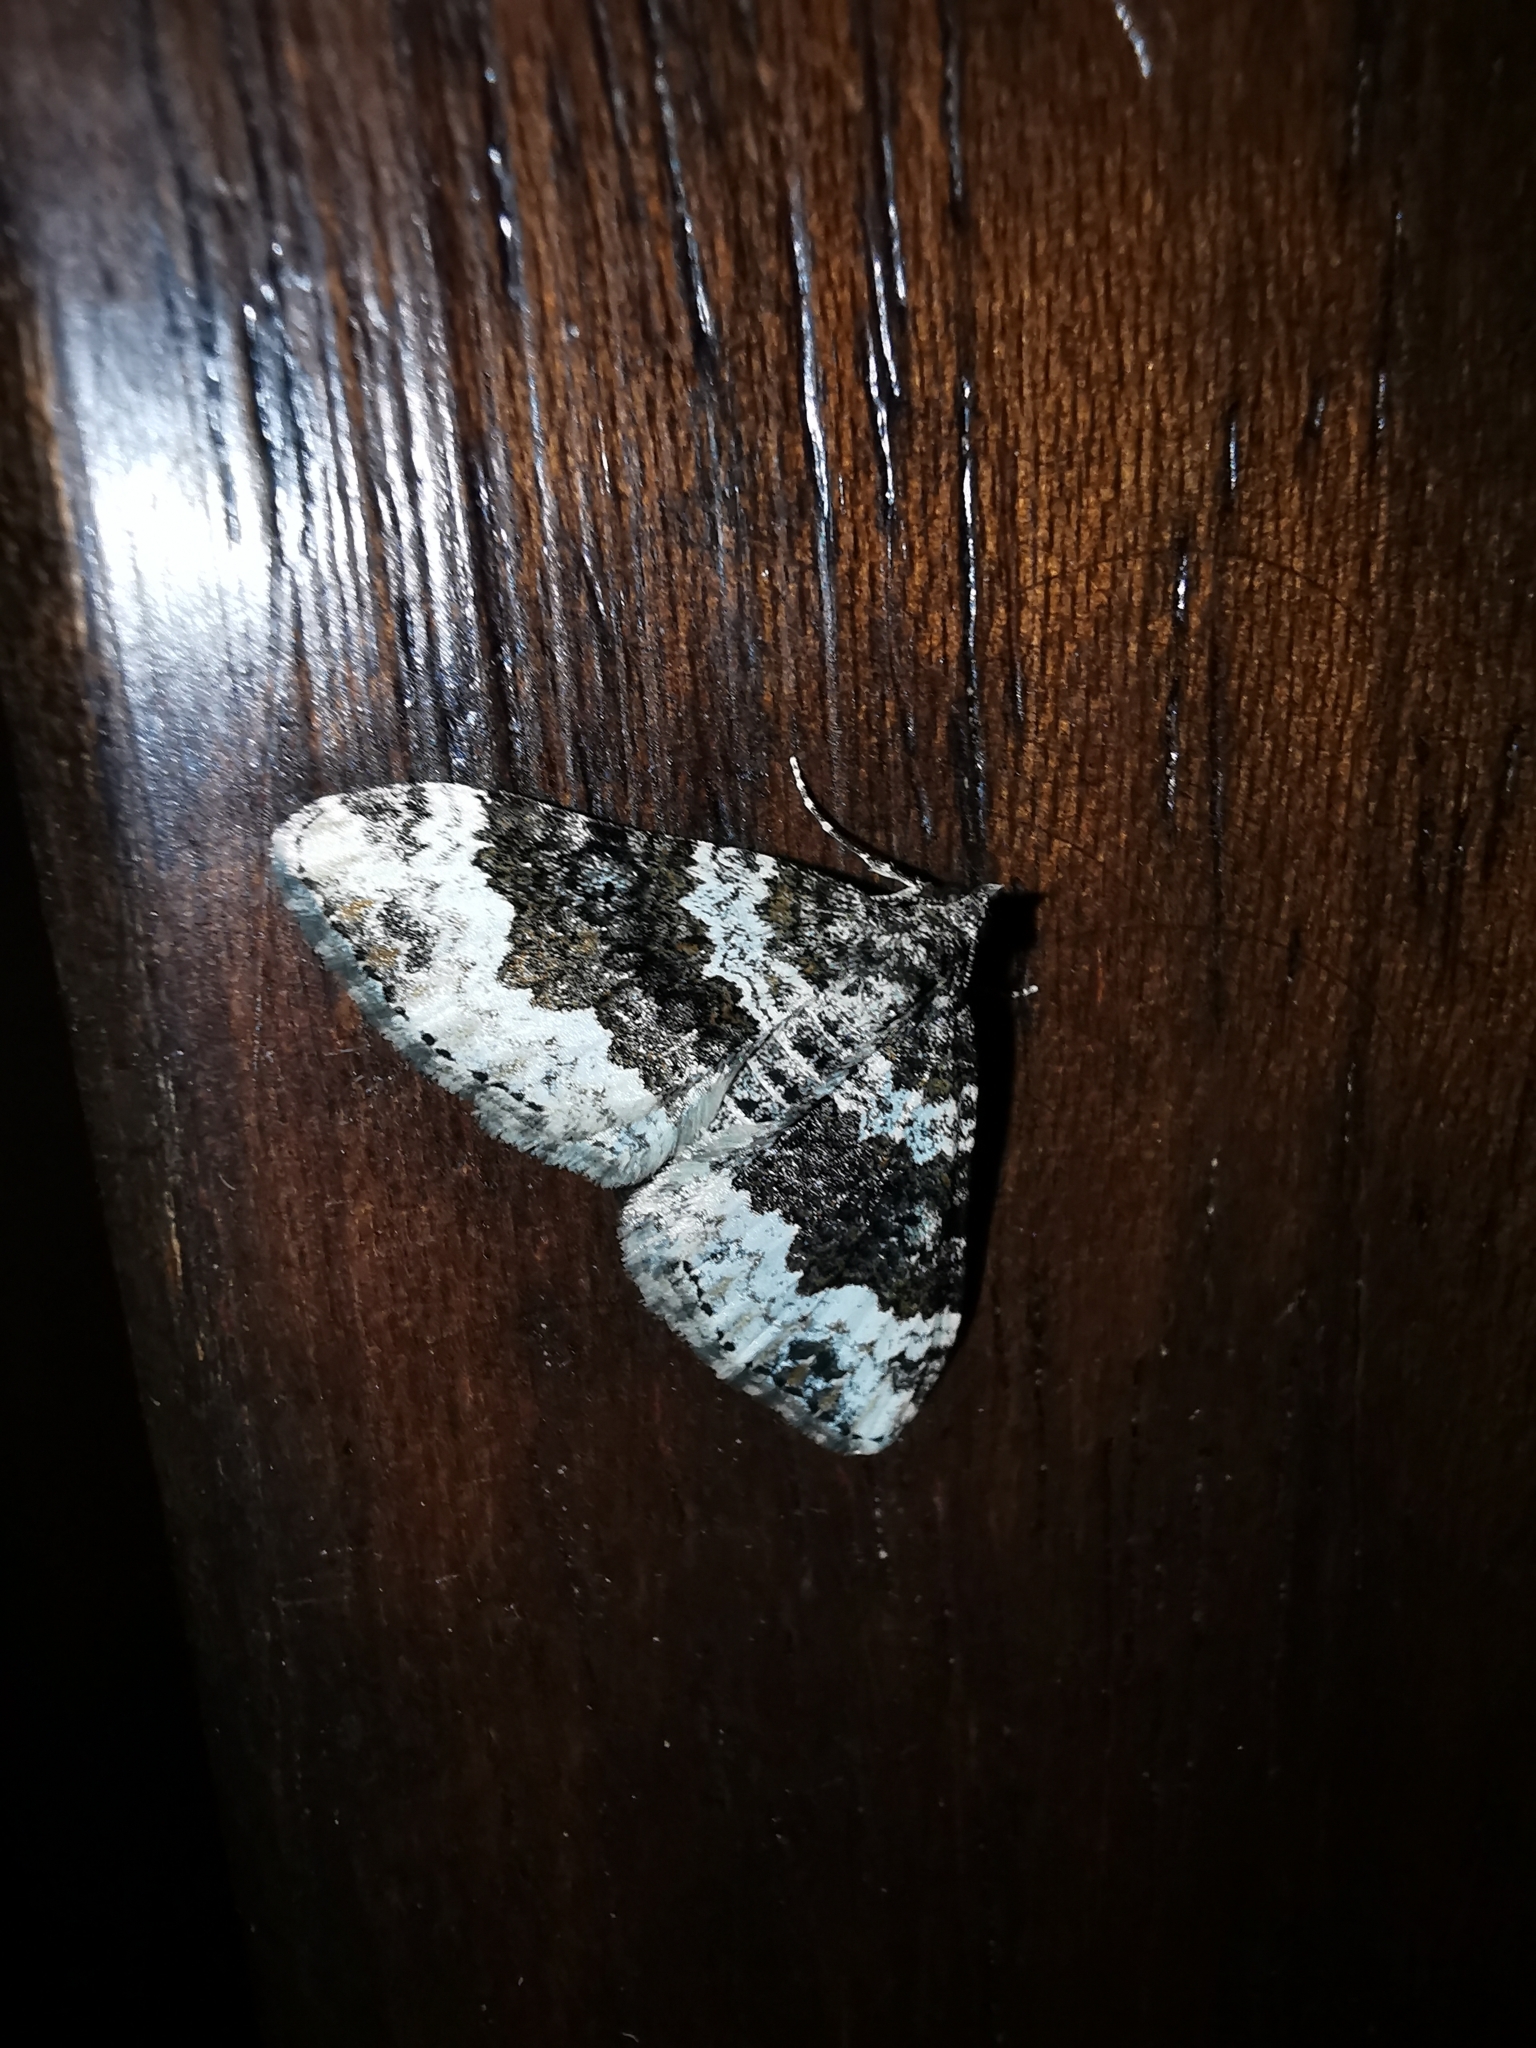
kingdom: Animalia
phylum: Arthropoda
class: Insecta
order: Lepidoptera
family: Geometridae
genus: Xanthorhoe
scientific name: Xanthorhoe oxybiata
